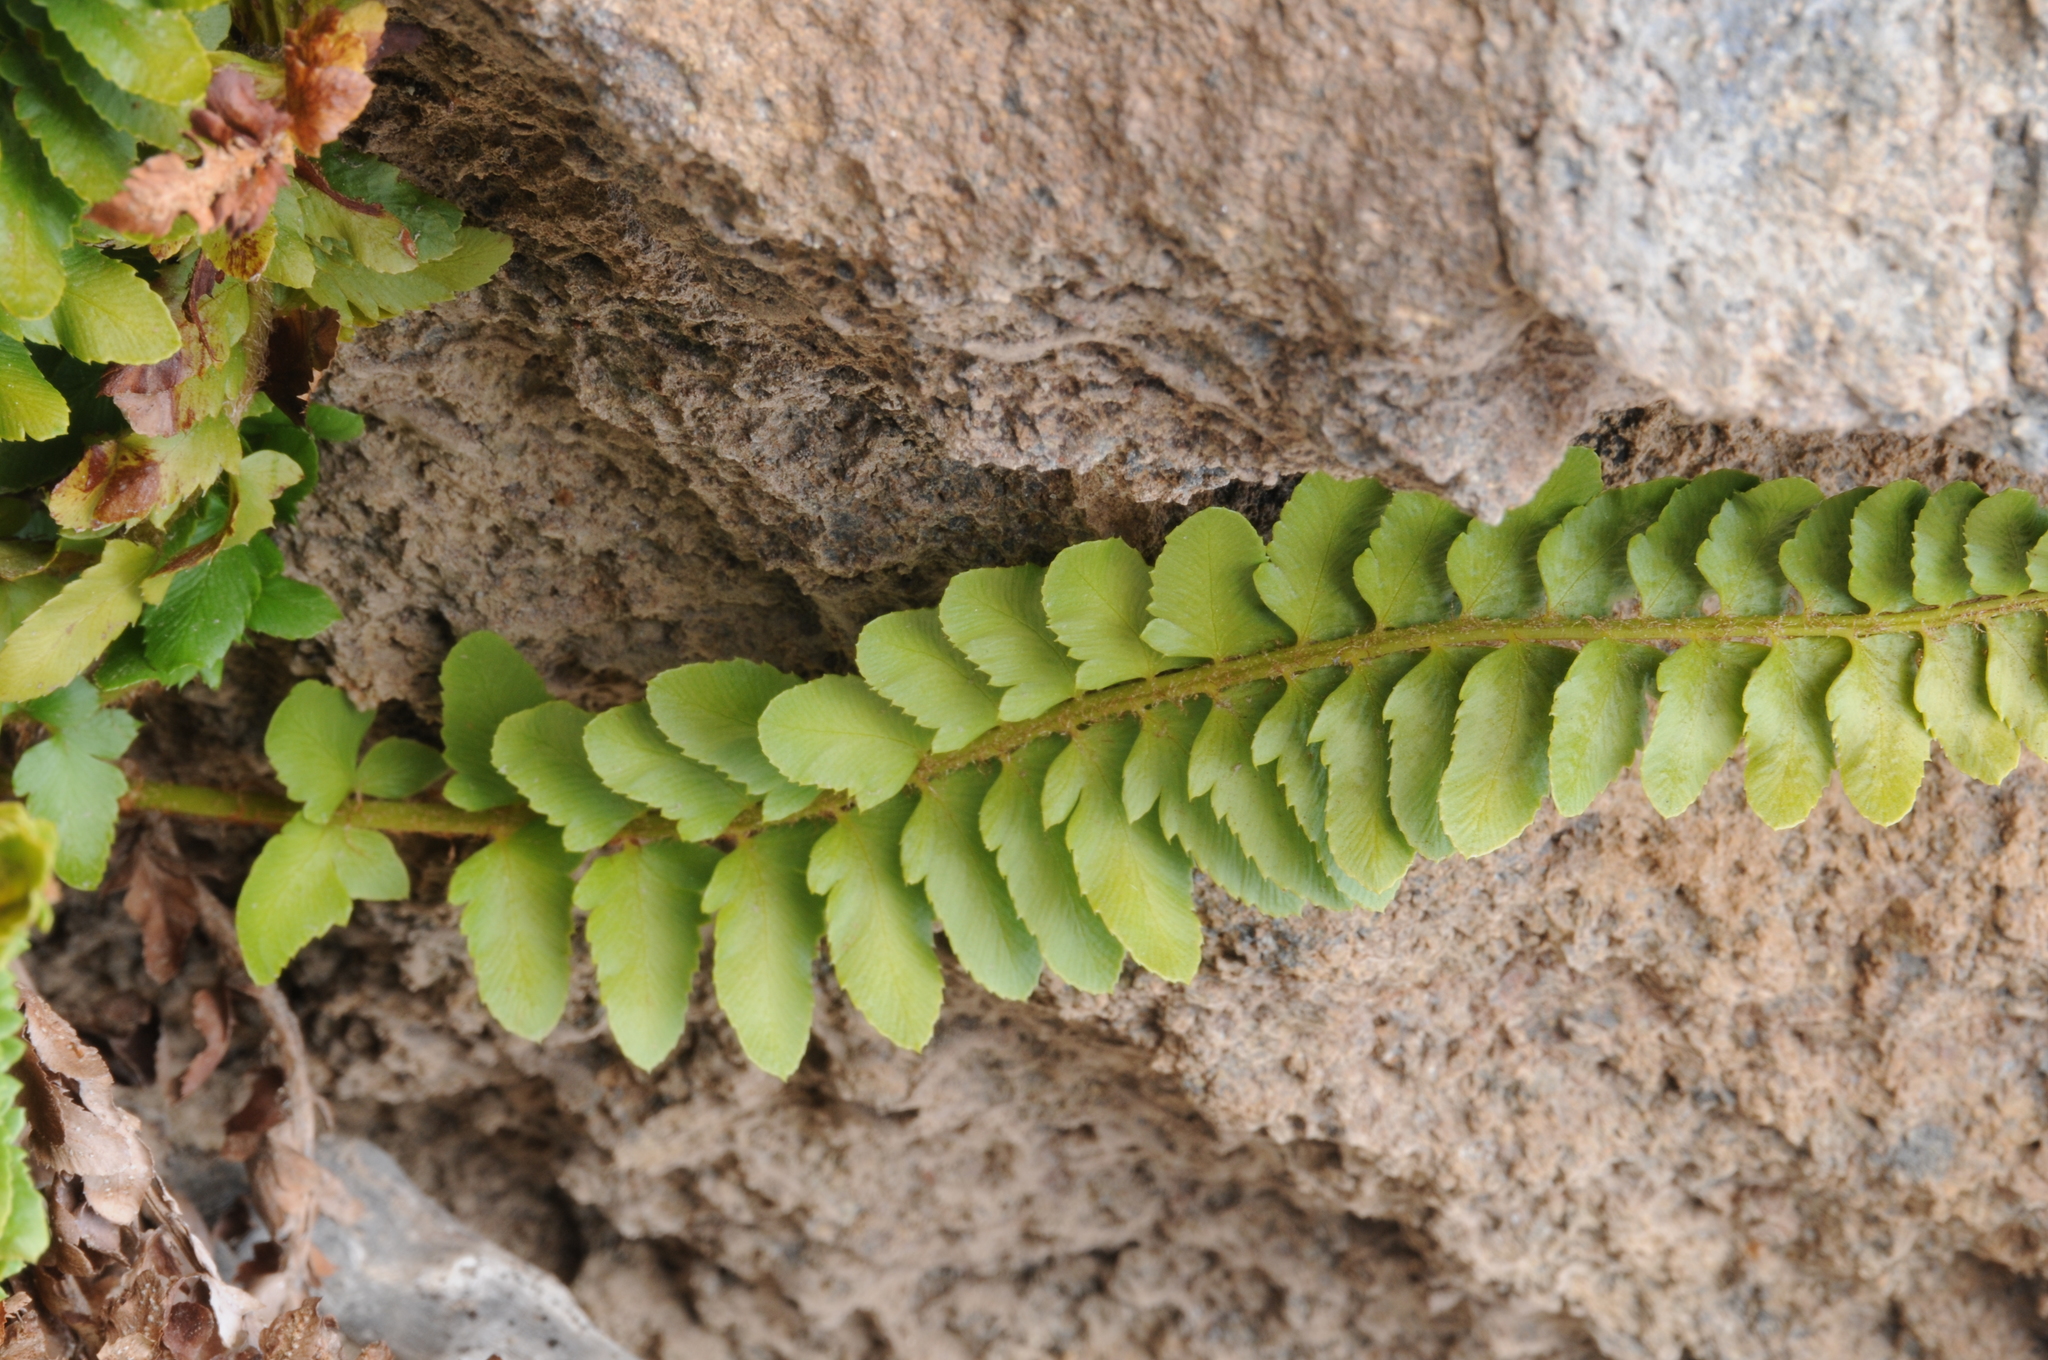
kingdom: Plantae
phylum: Tracheophyta
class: Polypodiopsida
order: Polypodiales
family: Dryopteridaceae
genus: Polystichum
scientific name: Polystichum scopulinum
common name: Eaton's shield fern
